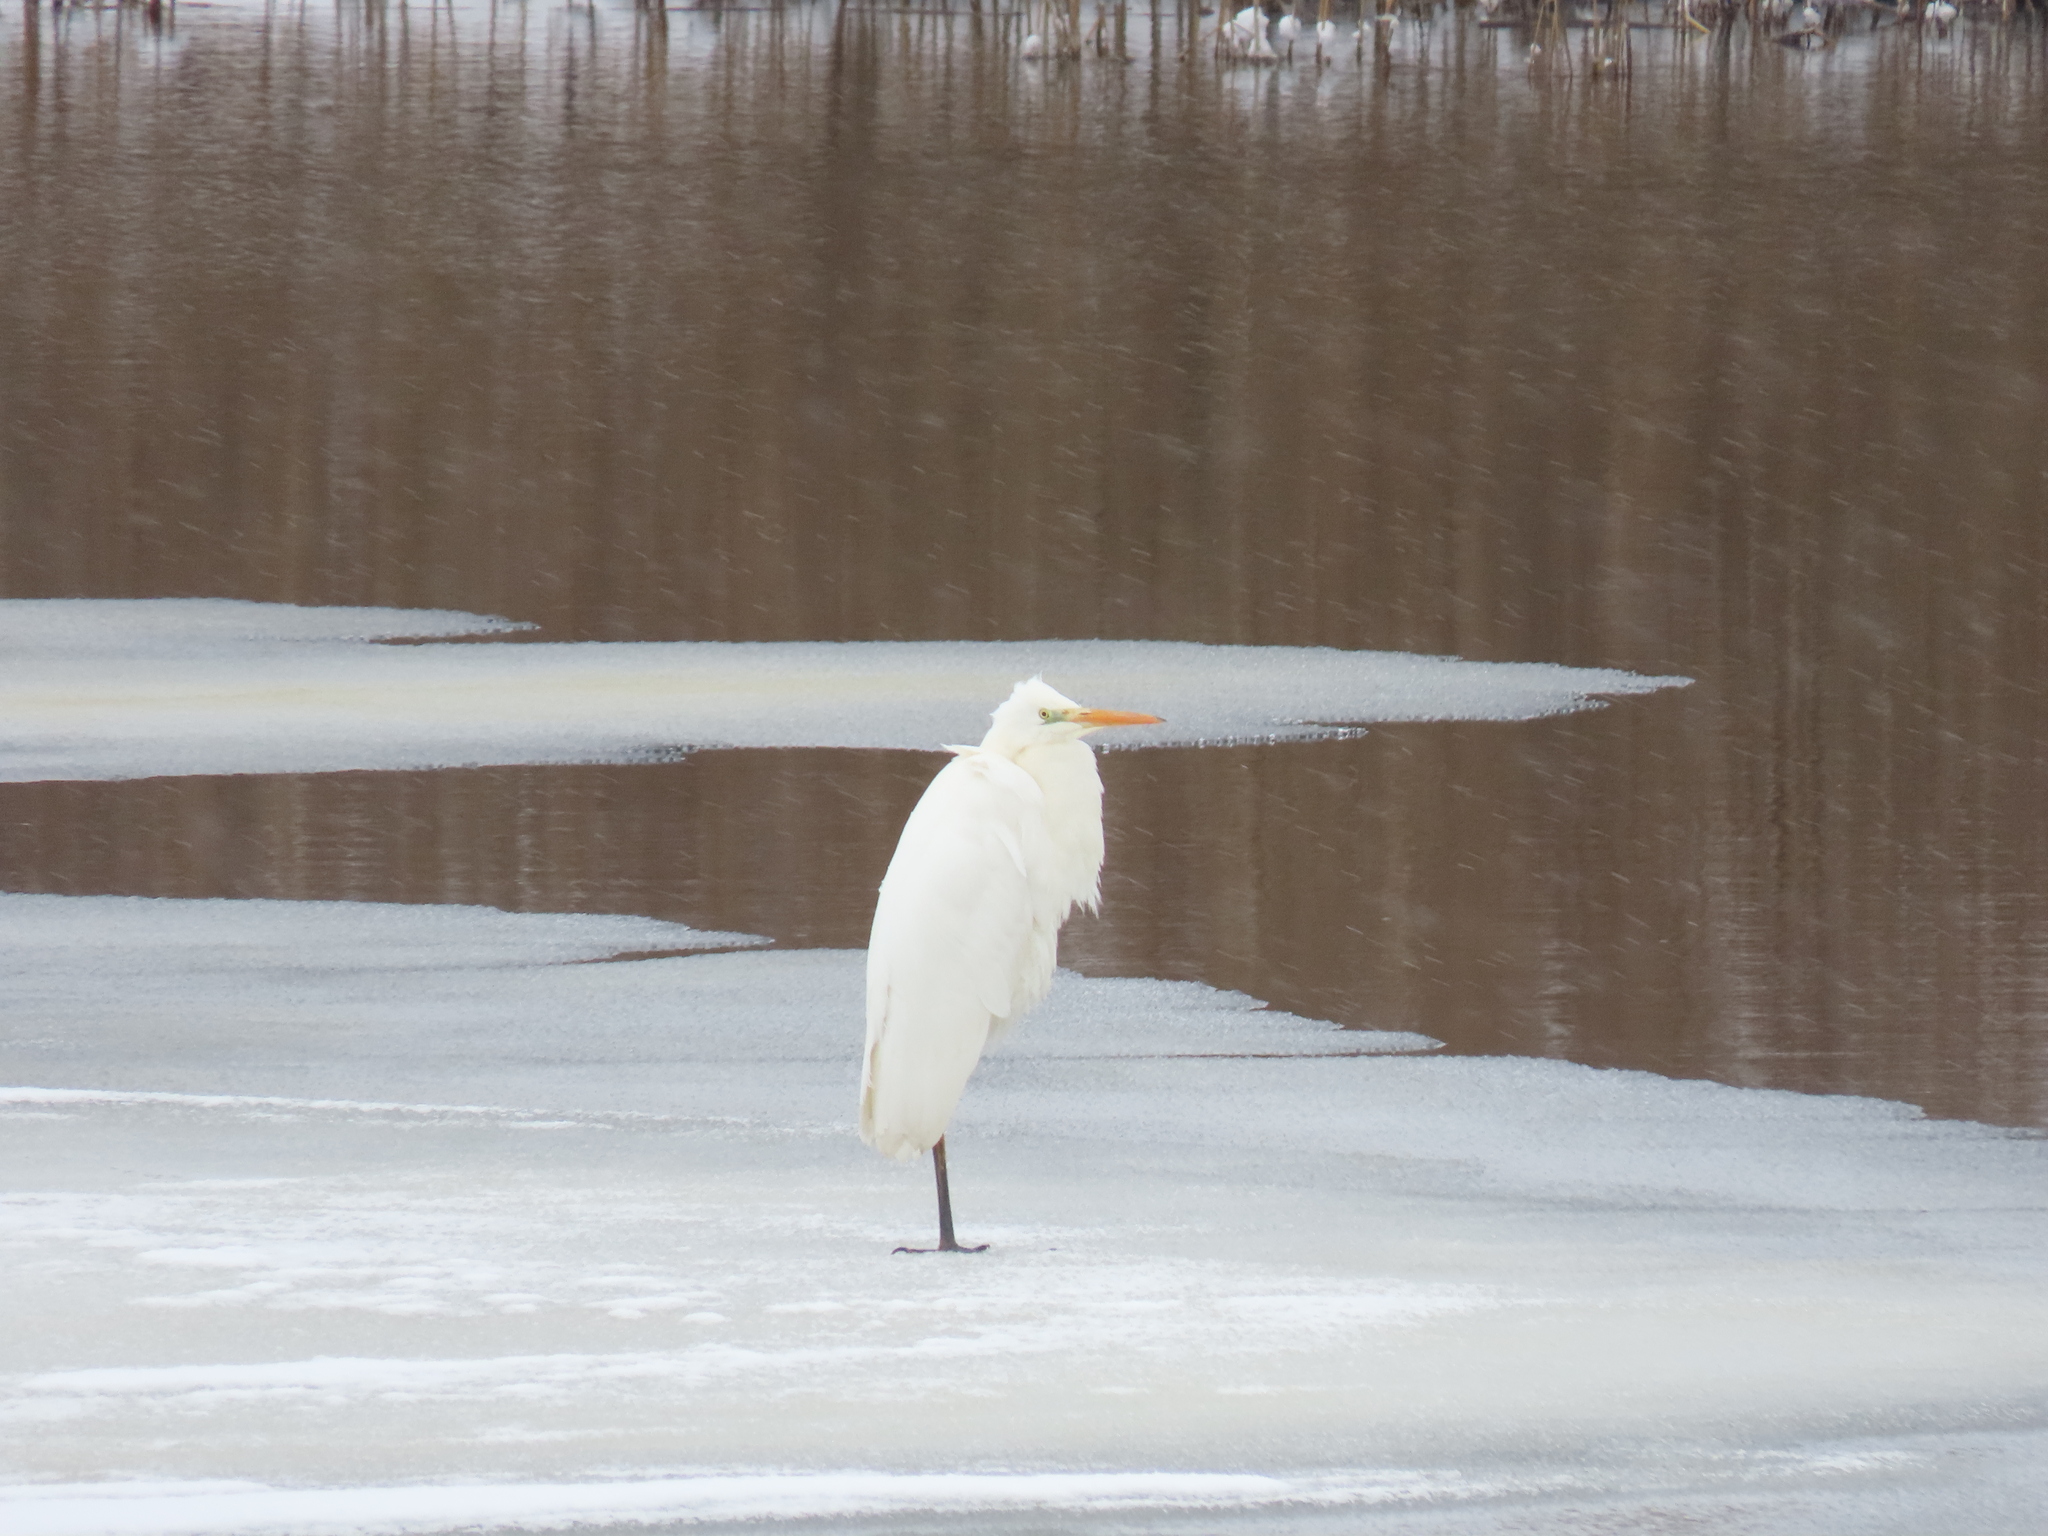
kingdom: Animalia
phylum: Chordata
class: Aves
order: Pelecaniformes
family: Ardeidae
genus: Ardea
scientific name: Ardea alba
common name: Great egret
